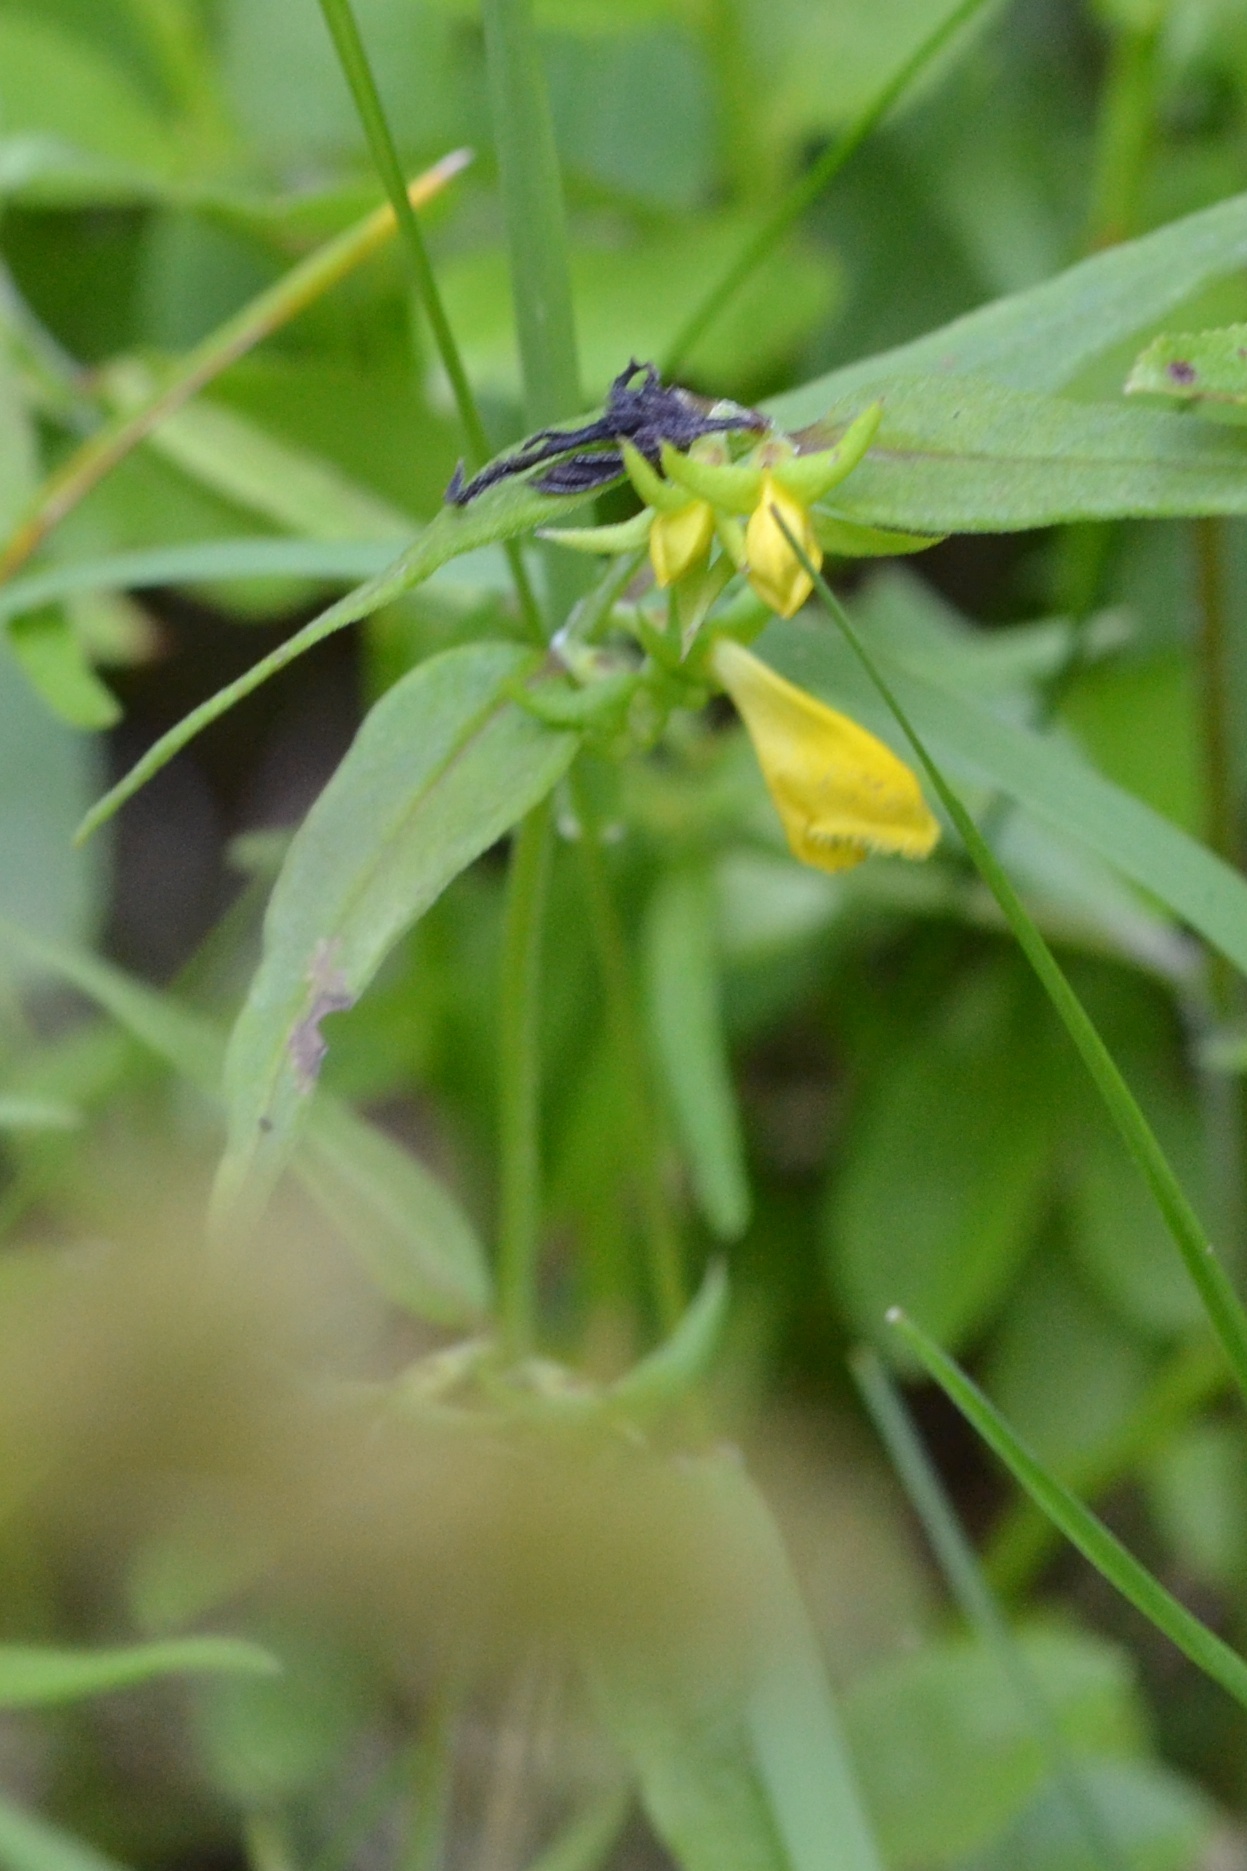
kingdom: Plantae
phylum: Tracheophyta
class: Magnoliopsida
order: Lamiales
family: Orobanchaceae
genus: Melampyrum
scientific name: Melampyrum sylvaticum
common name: Small cow-wheat
